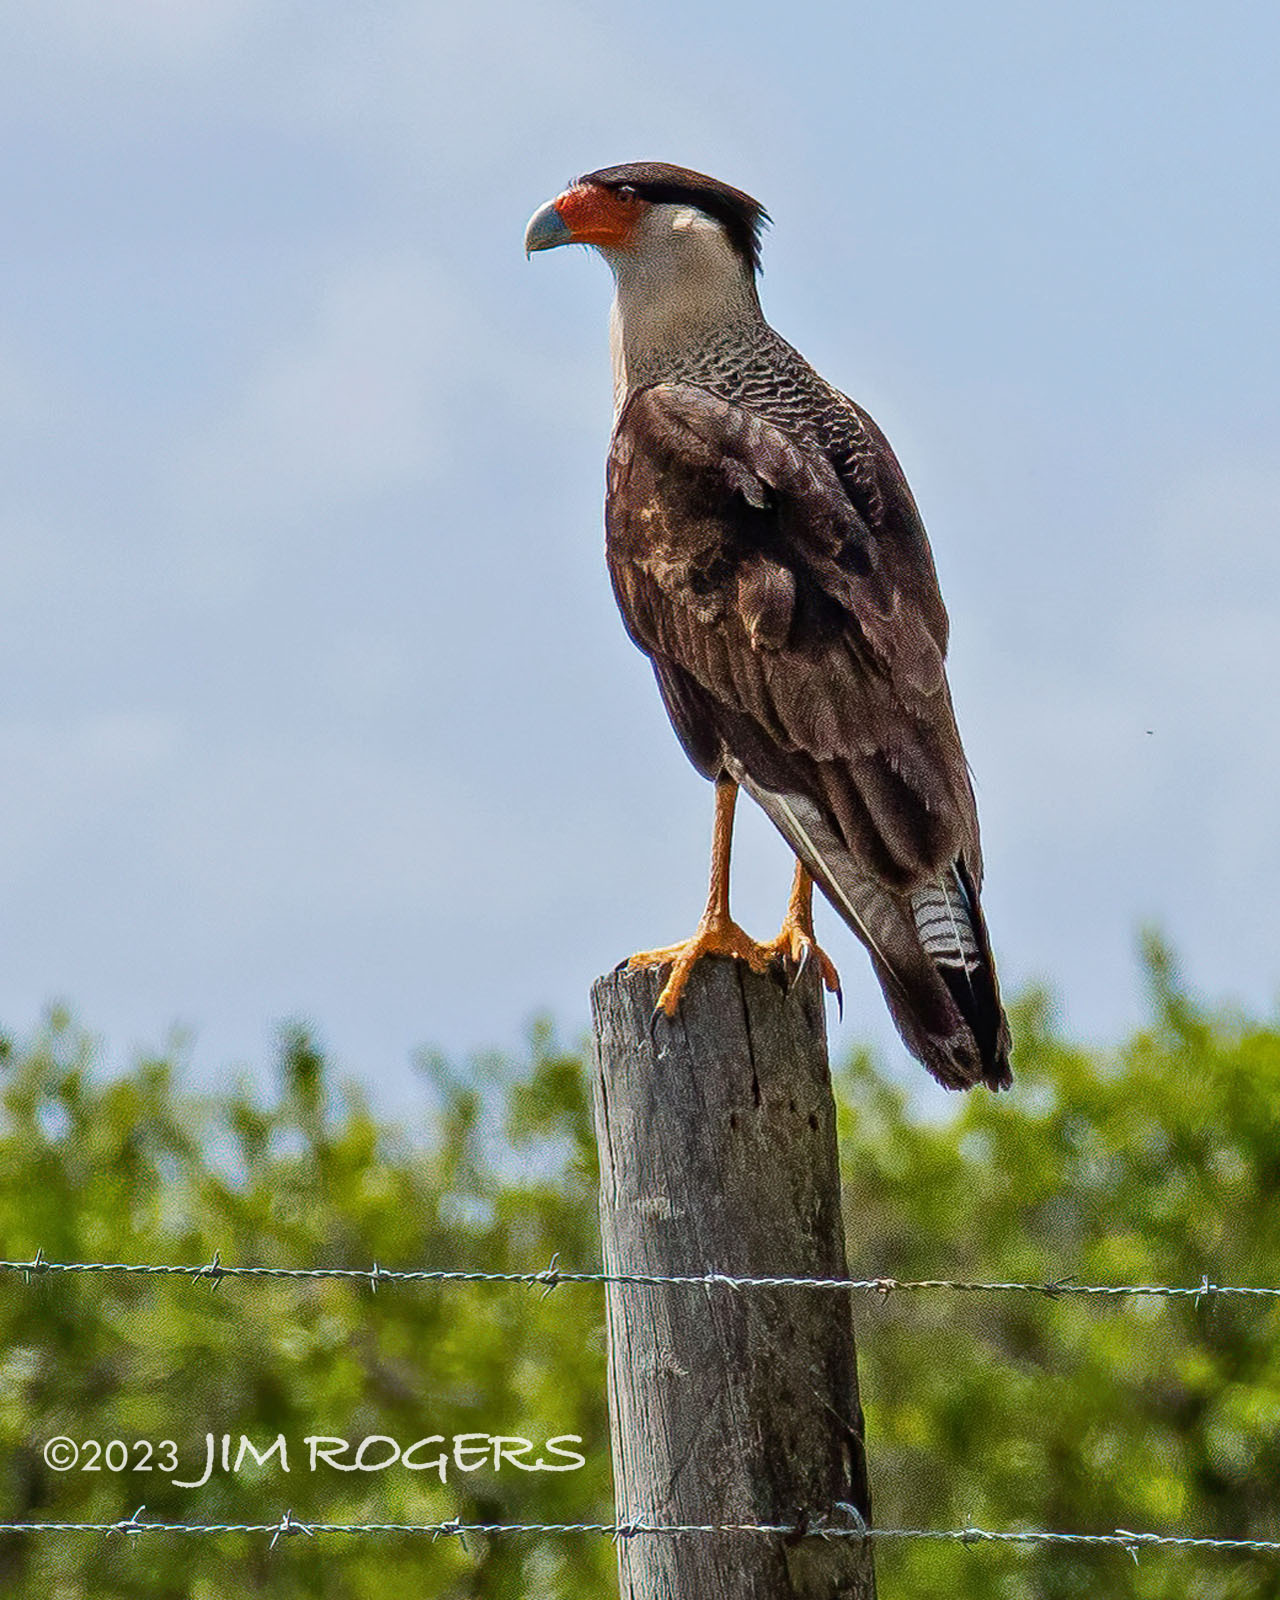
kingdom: Animalia
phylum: Chordata
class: Aves
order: Falconiformes
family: Falconidae
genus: Caracara
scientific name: Caracara plancus
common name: Southern caracara
